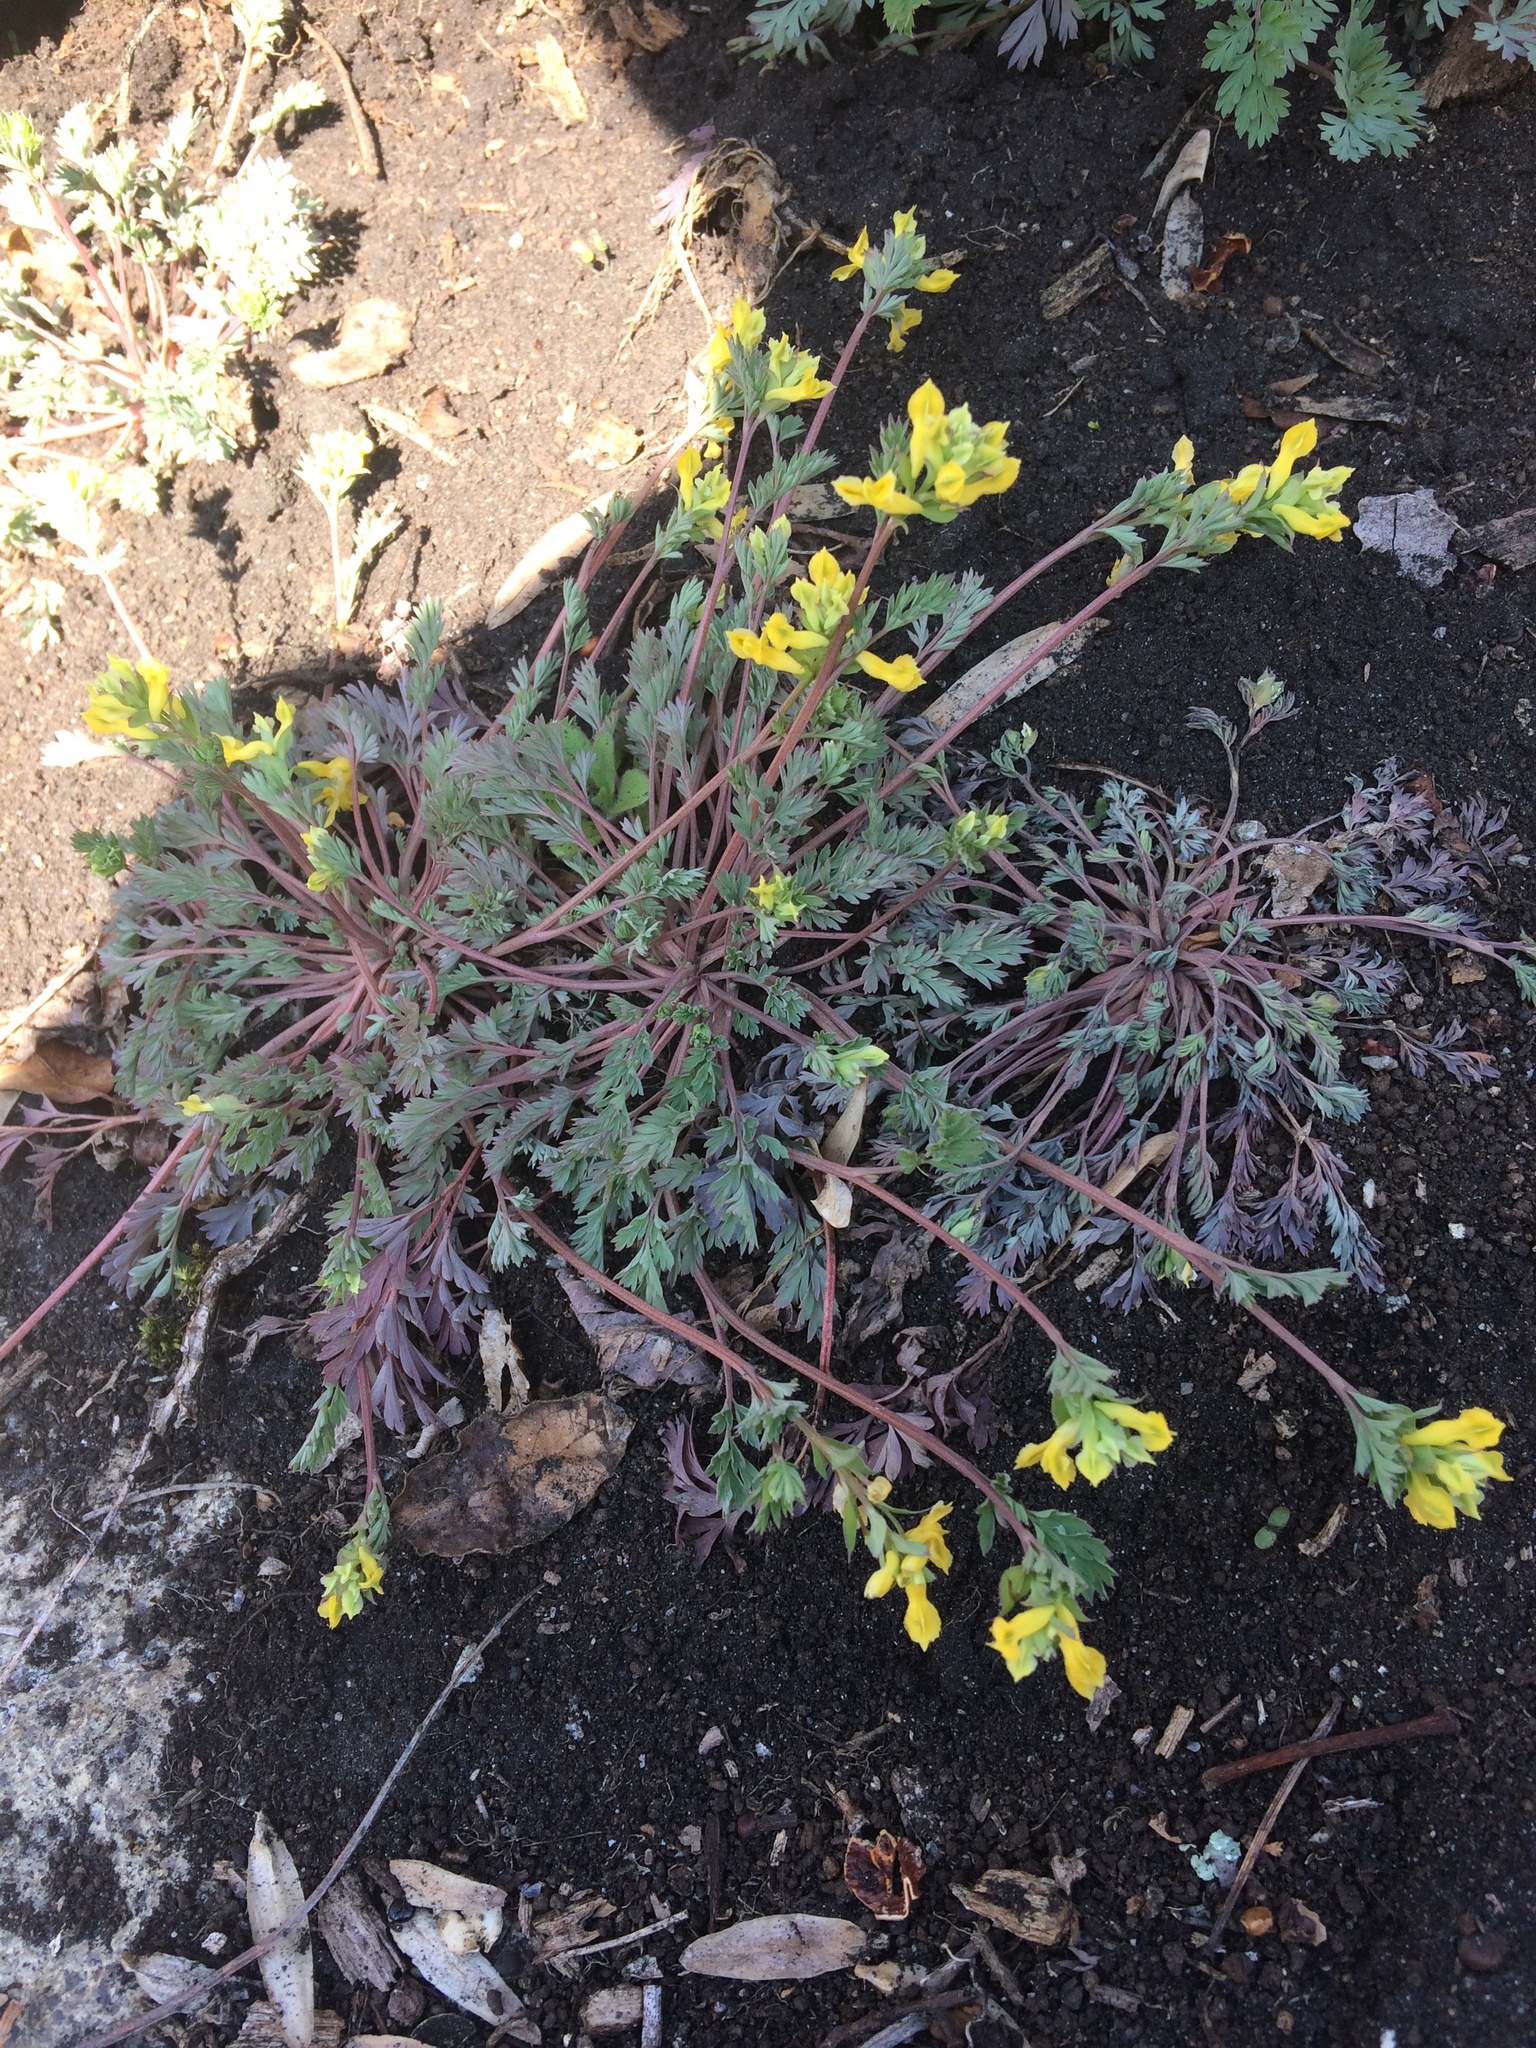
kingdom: Plantae
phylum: Tracheophyta
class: Magnoliopsida
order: Ranunculales
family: Papaveraceae
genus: Corydalis
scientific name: Corydalis flavula
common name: Yellow corydalis
